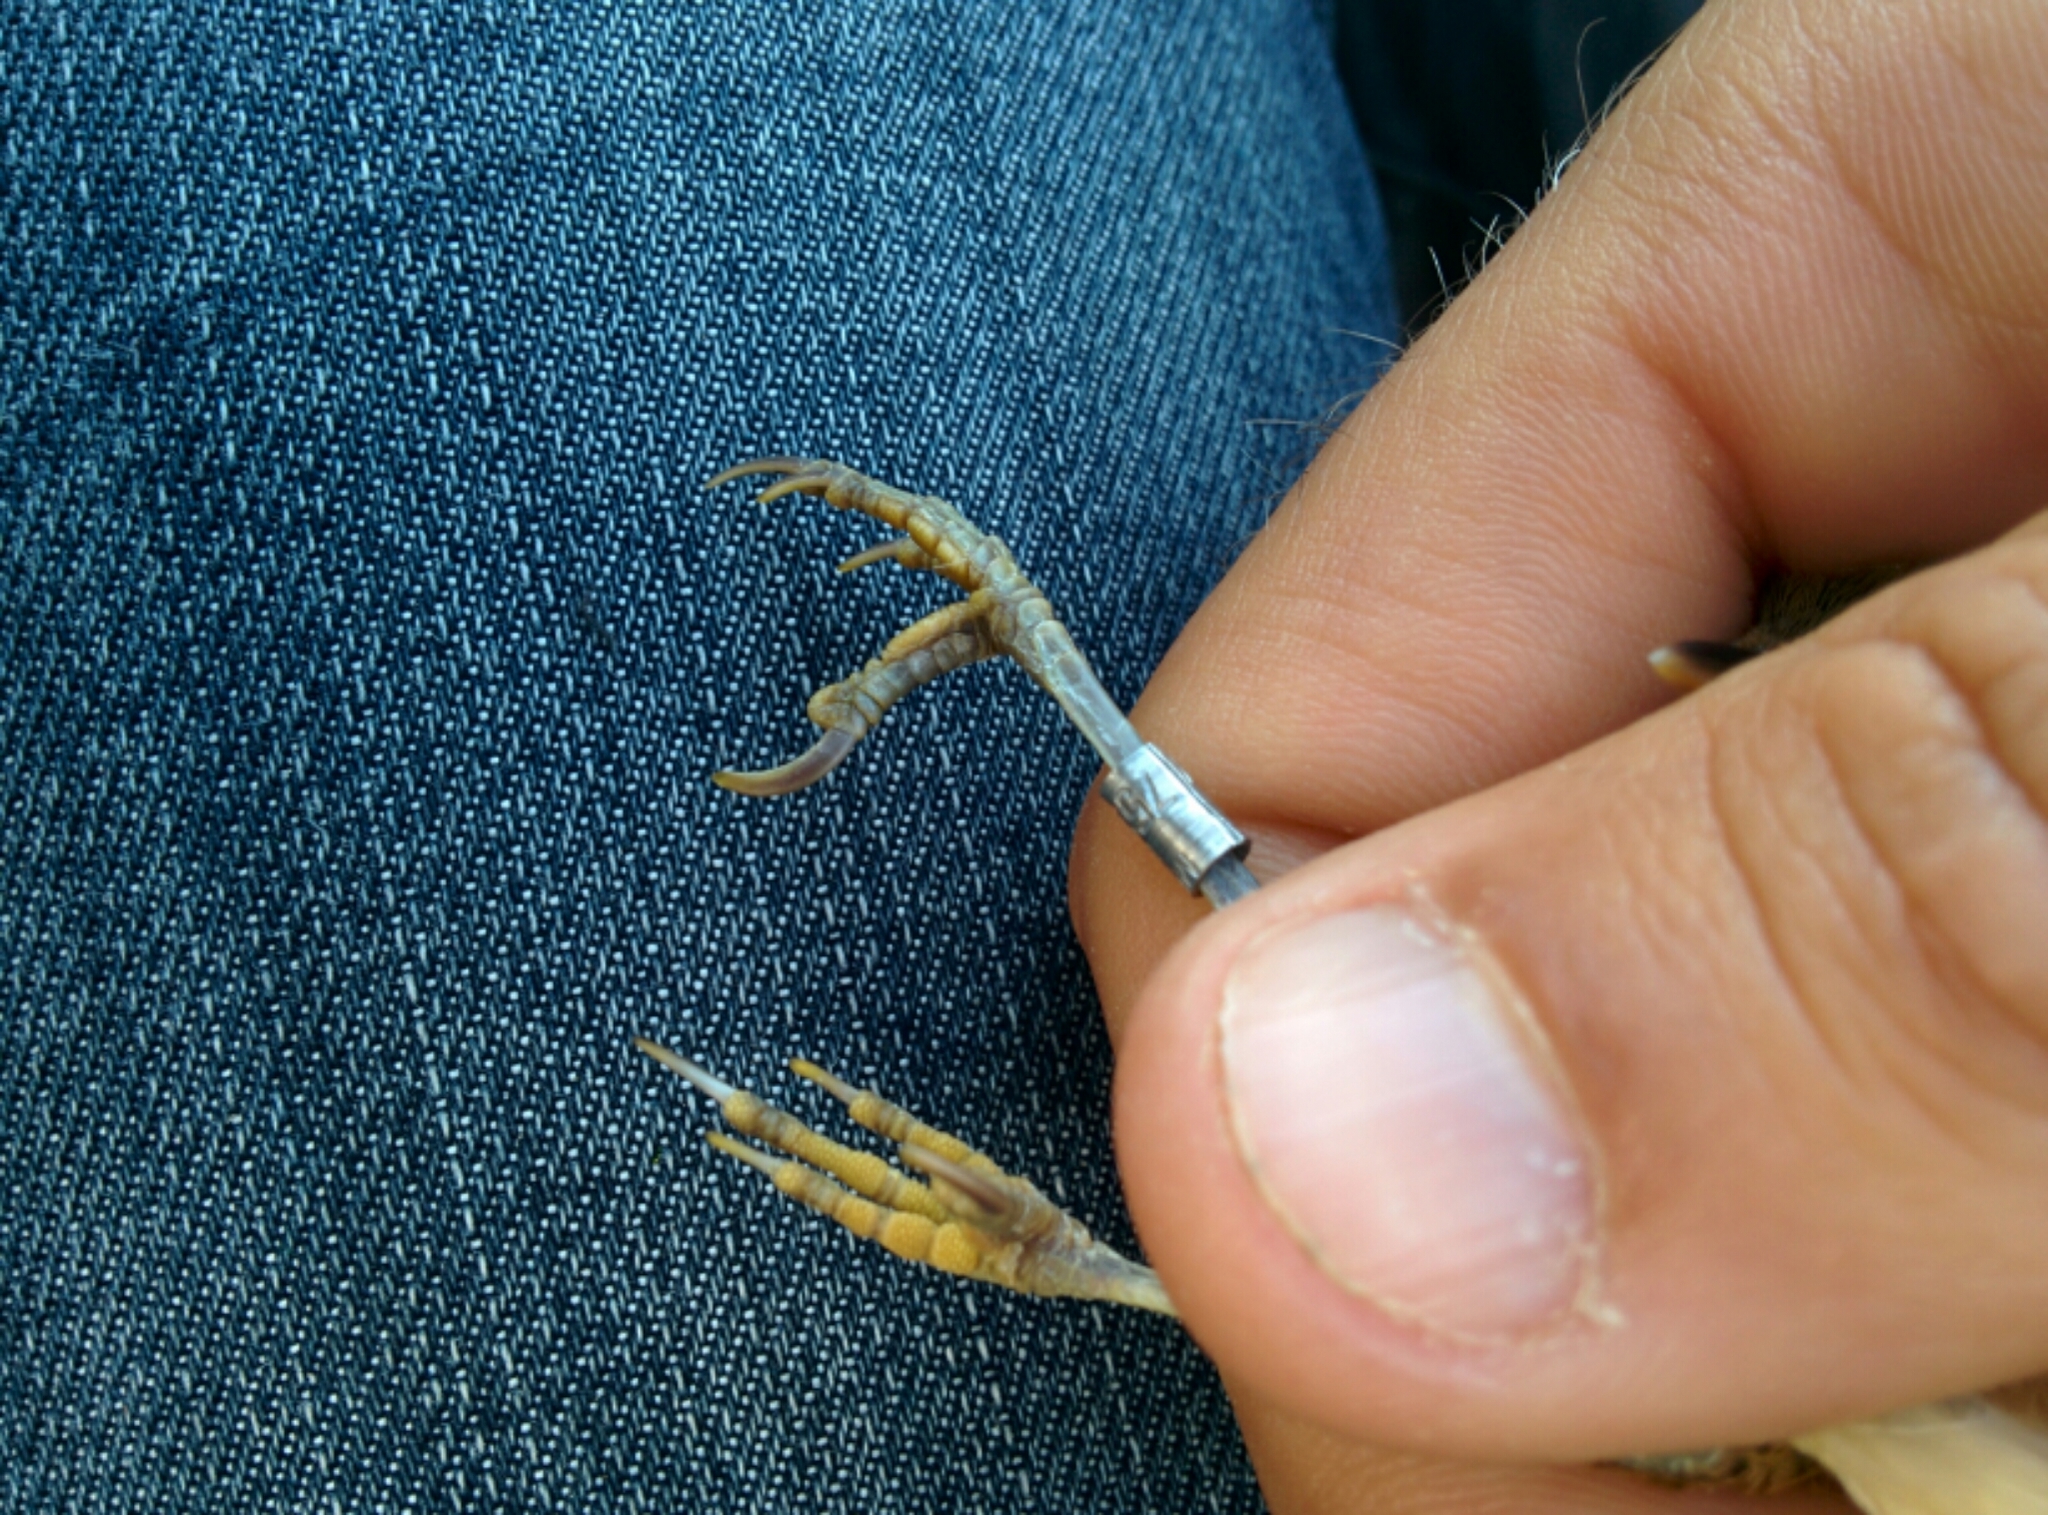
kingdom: Animalia
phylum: Chordata
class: Aves
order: Passeriformes
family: Acrocephalidae
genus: Acrocephalus
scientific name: Acrocephalus scirpaceus
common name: Eurasian reed warbler
